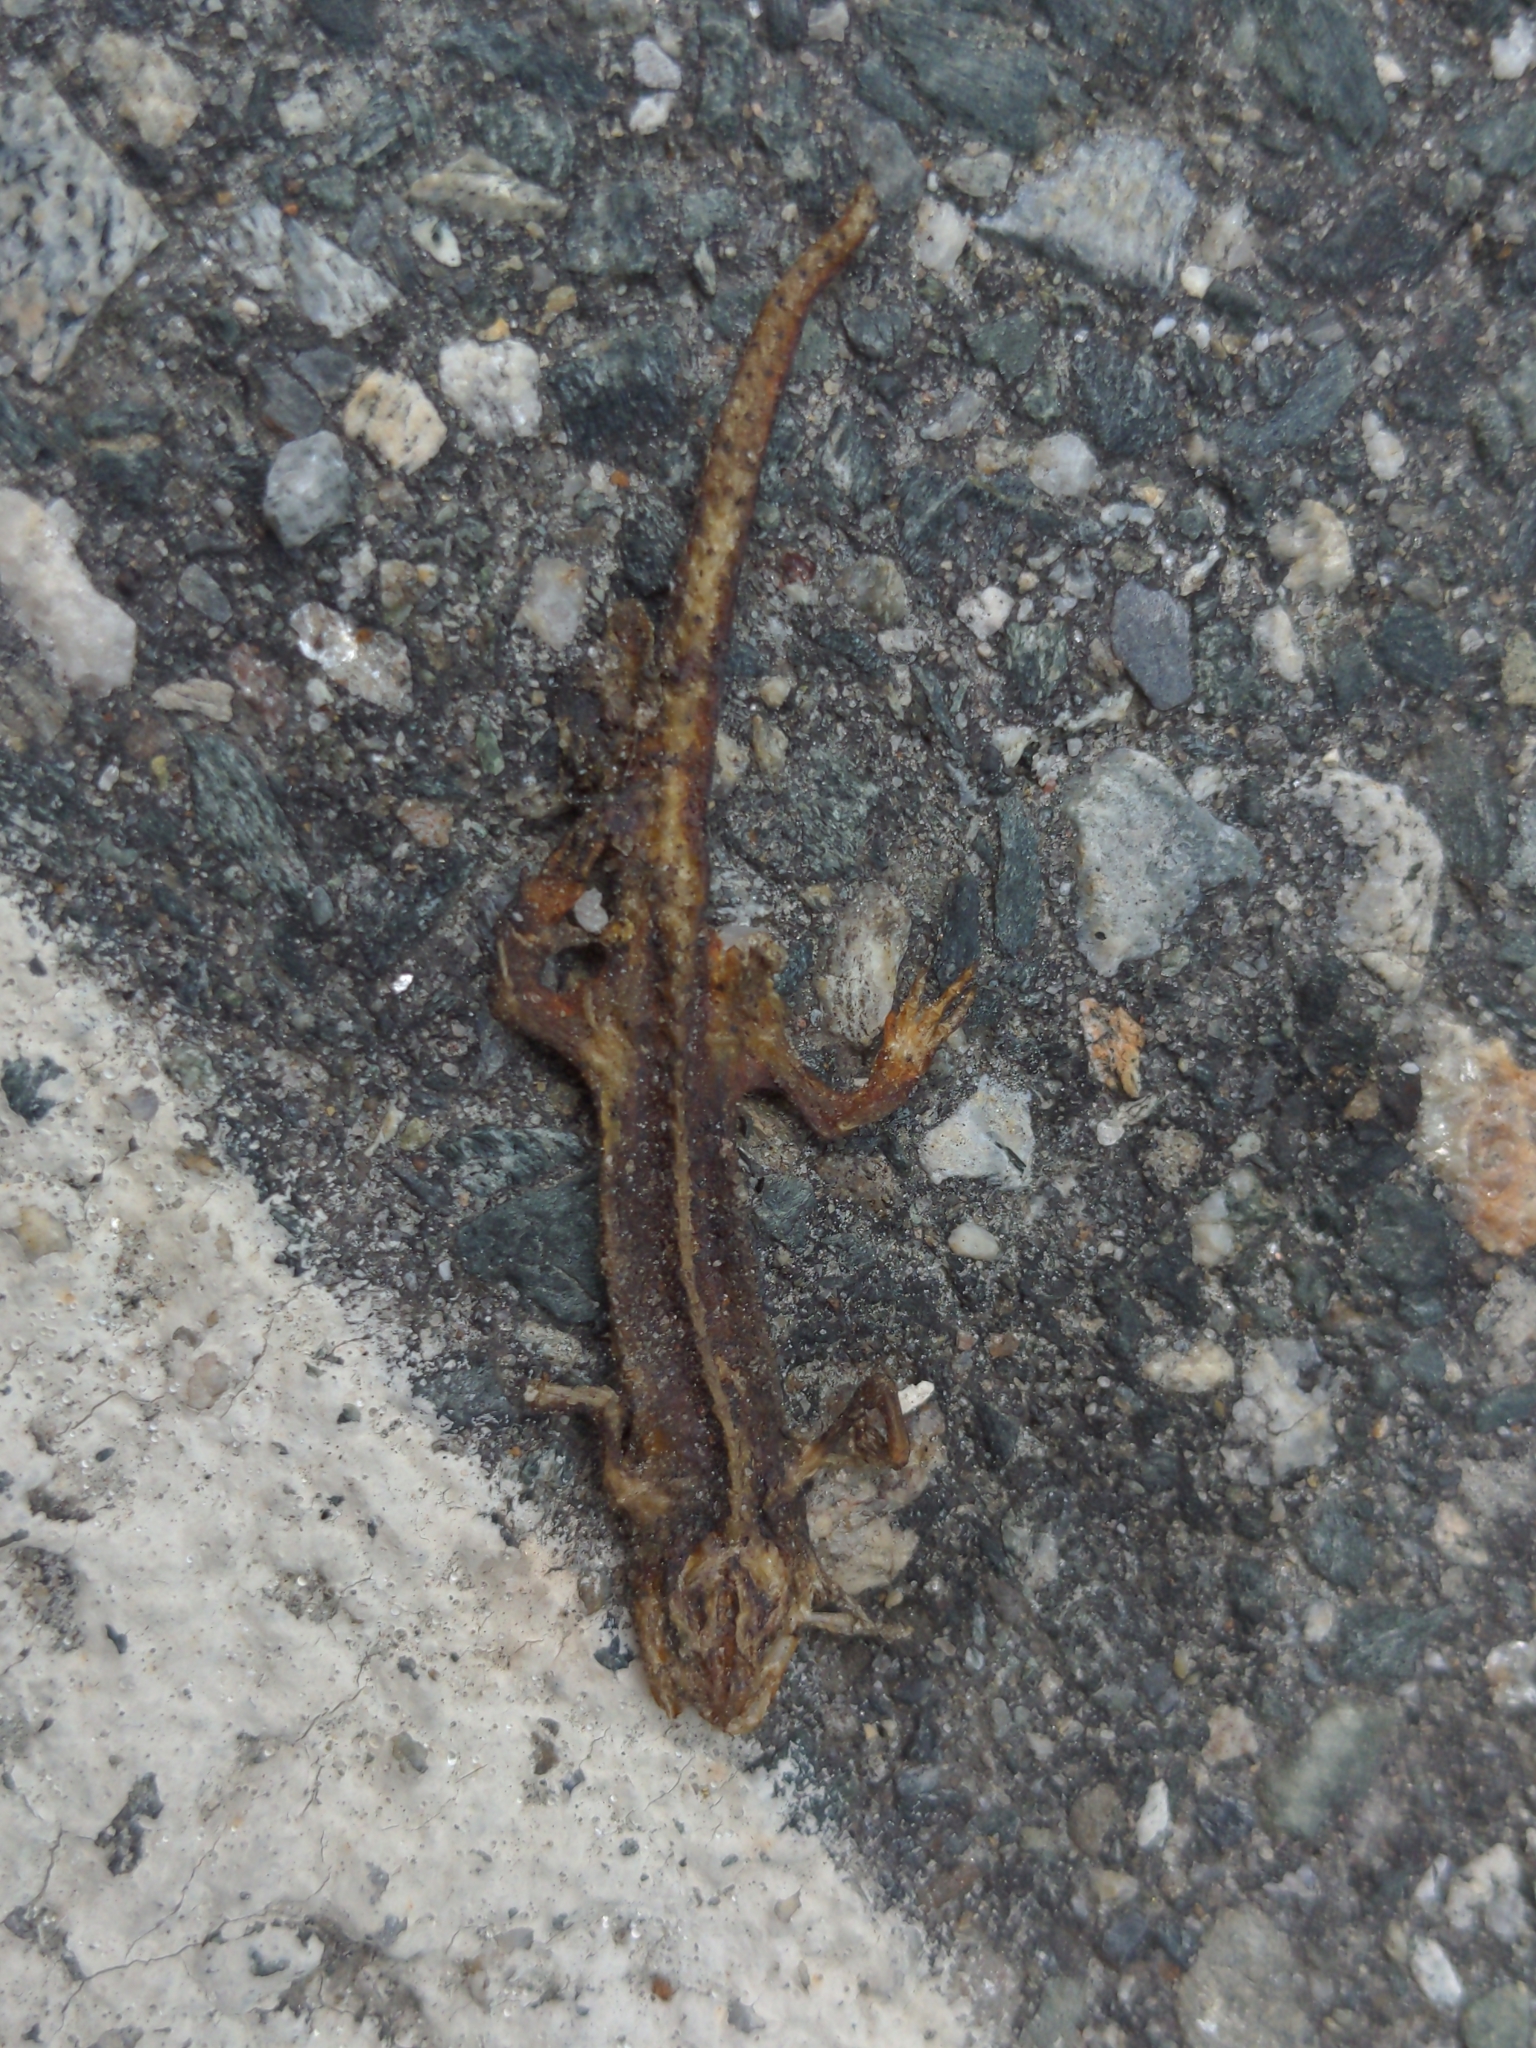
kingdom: Animalia
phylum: Chordata
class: Amphibia
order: Caudata
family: Salamandridae
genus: Notophthalmus
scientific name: Notophthalmus viridescens
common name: Eastern newt
